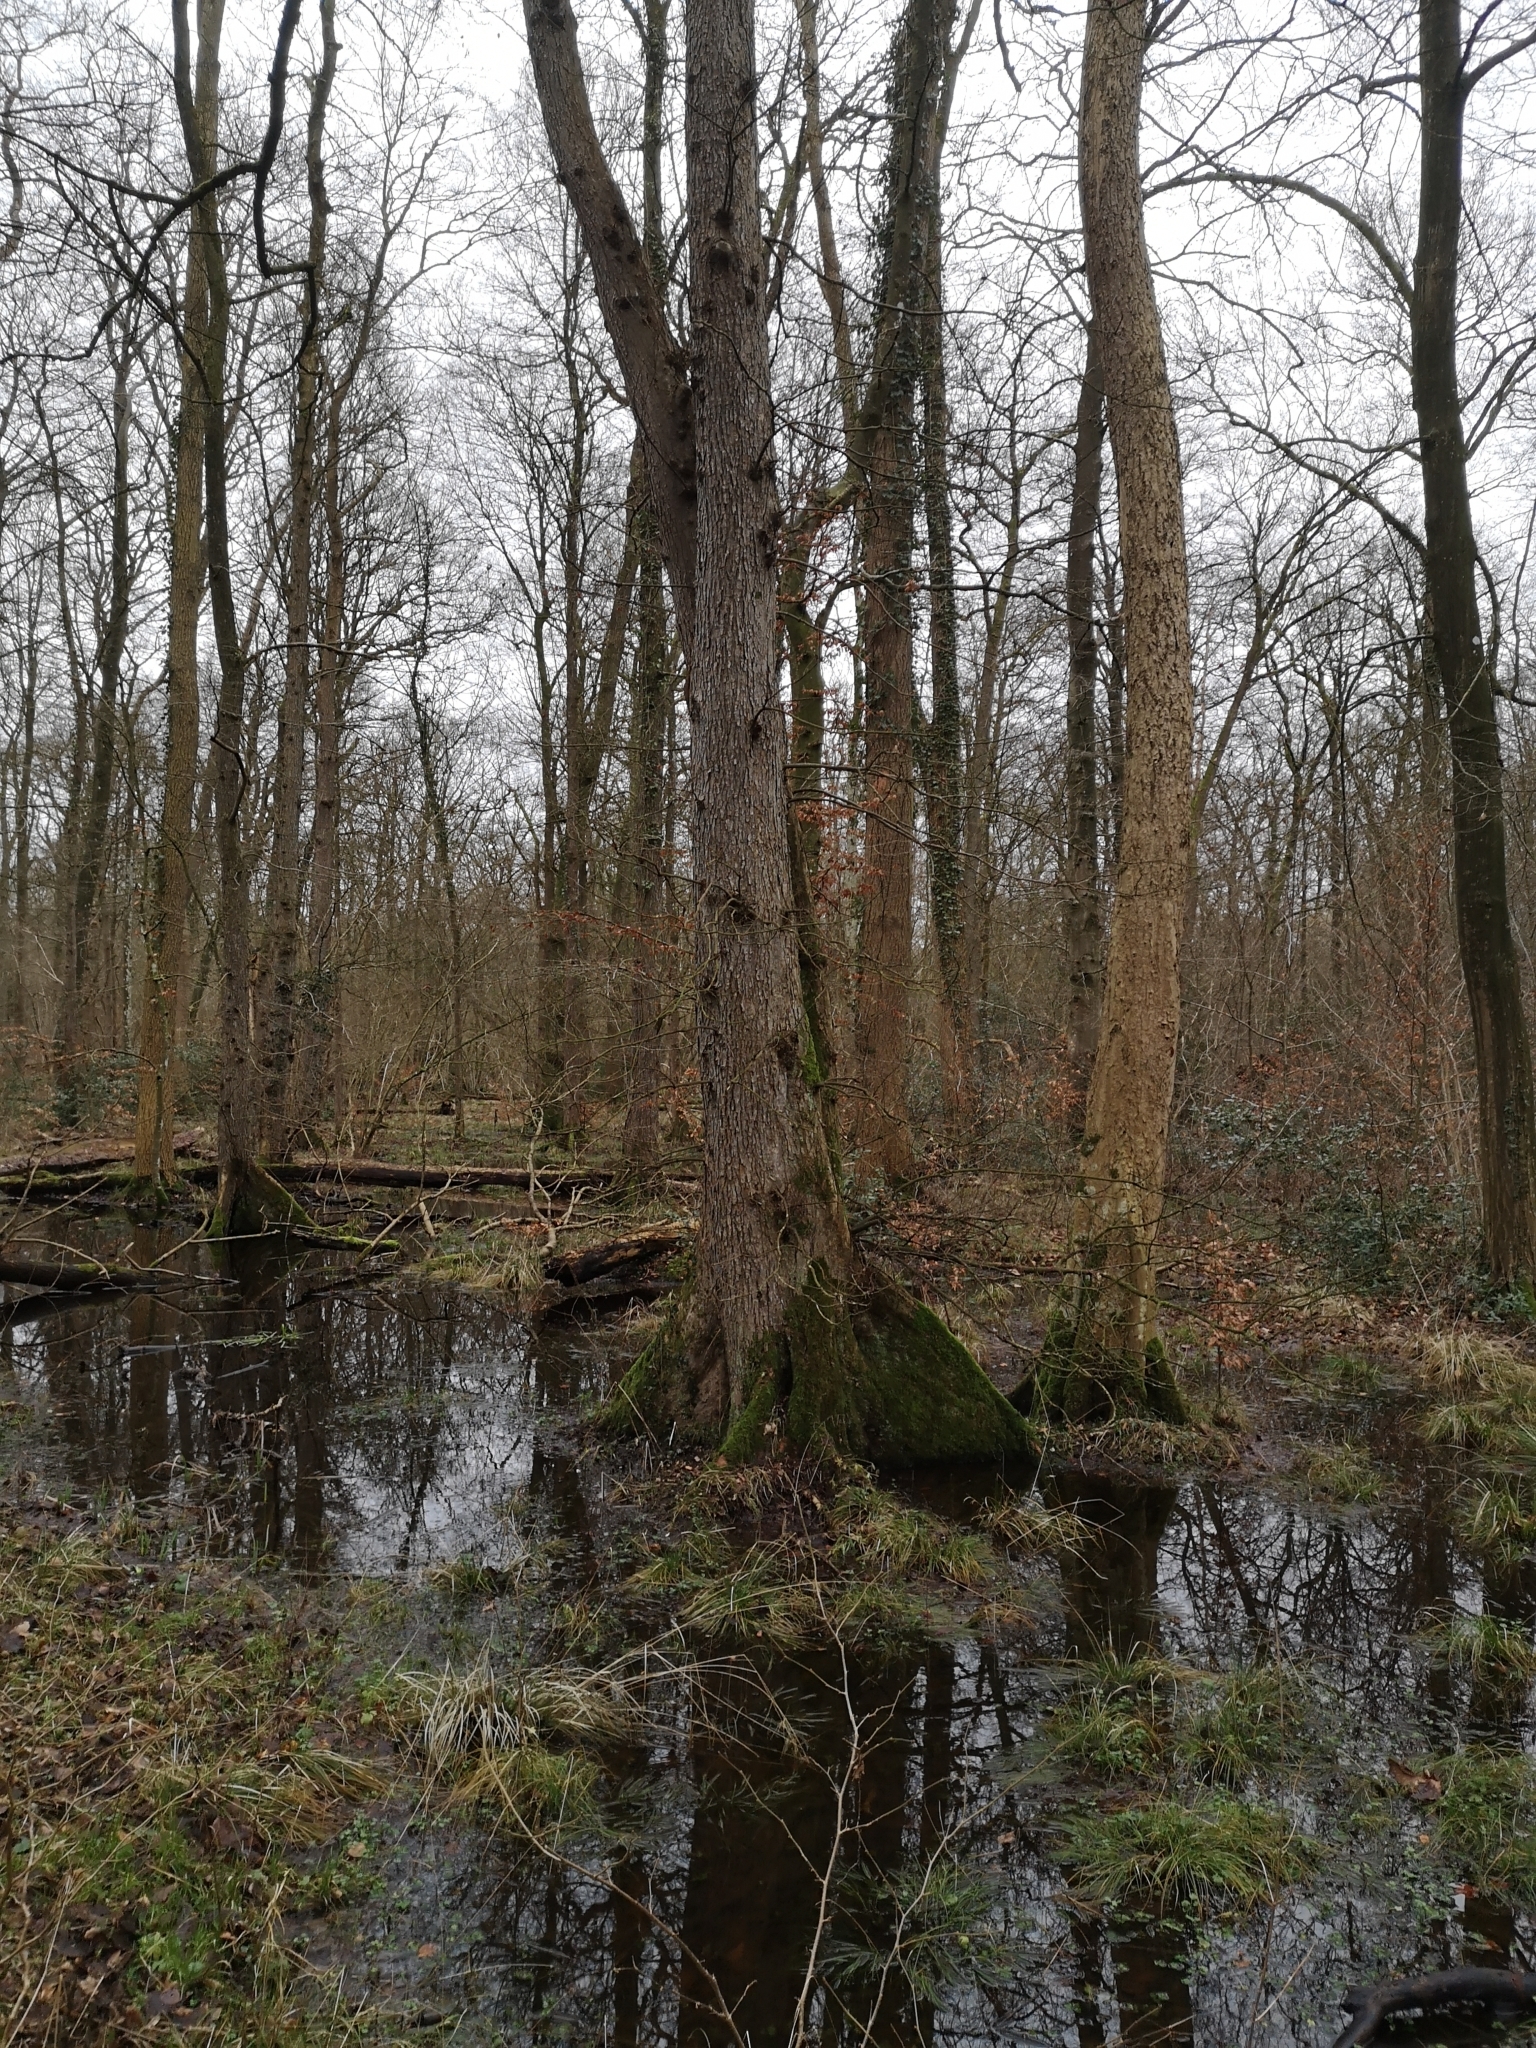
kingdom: Plantae
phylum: Tracheophyta
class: Magnoliopsida
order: Rosales
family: Ulmaceae
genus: Ulmus
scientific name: Ulmus laevis
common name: European white-elm
